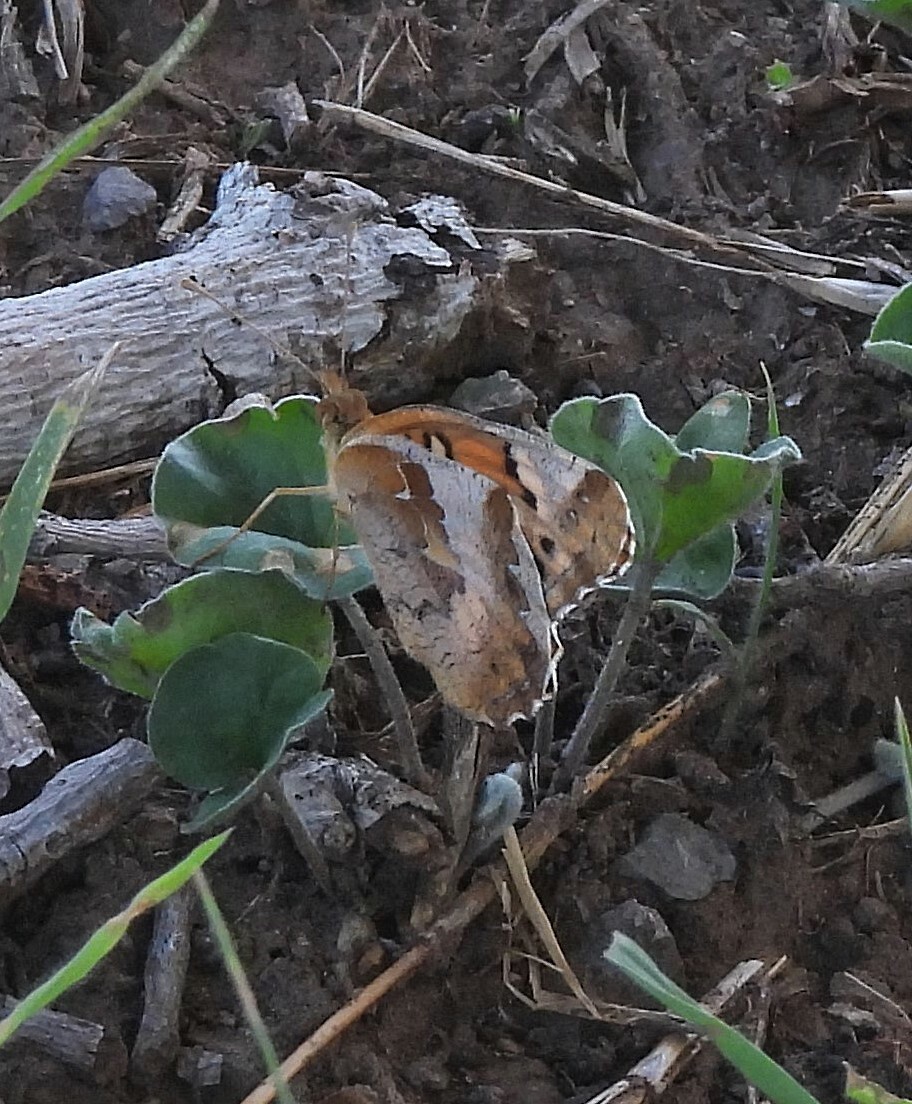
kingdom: Animalia
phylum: Arthropoda
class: Insecta
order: Lepidoptera
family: Nymphalidae
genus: Euptoieta
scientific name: Euptoieta hortensia
